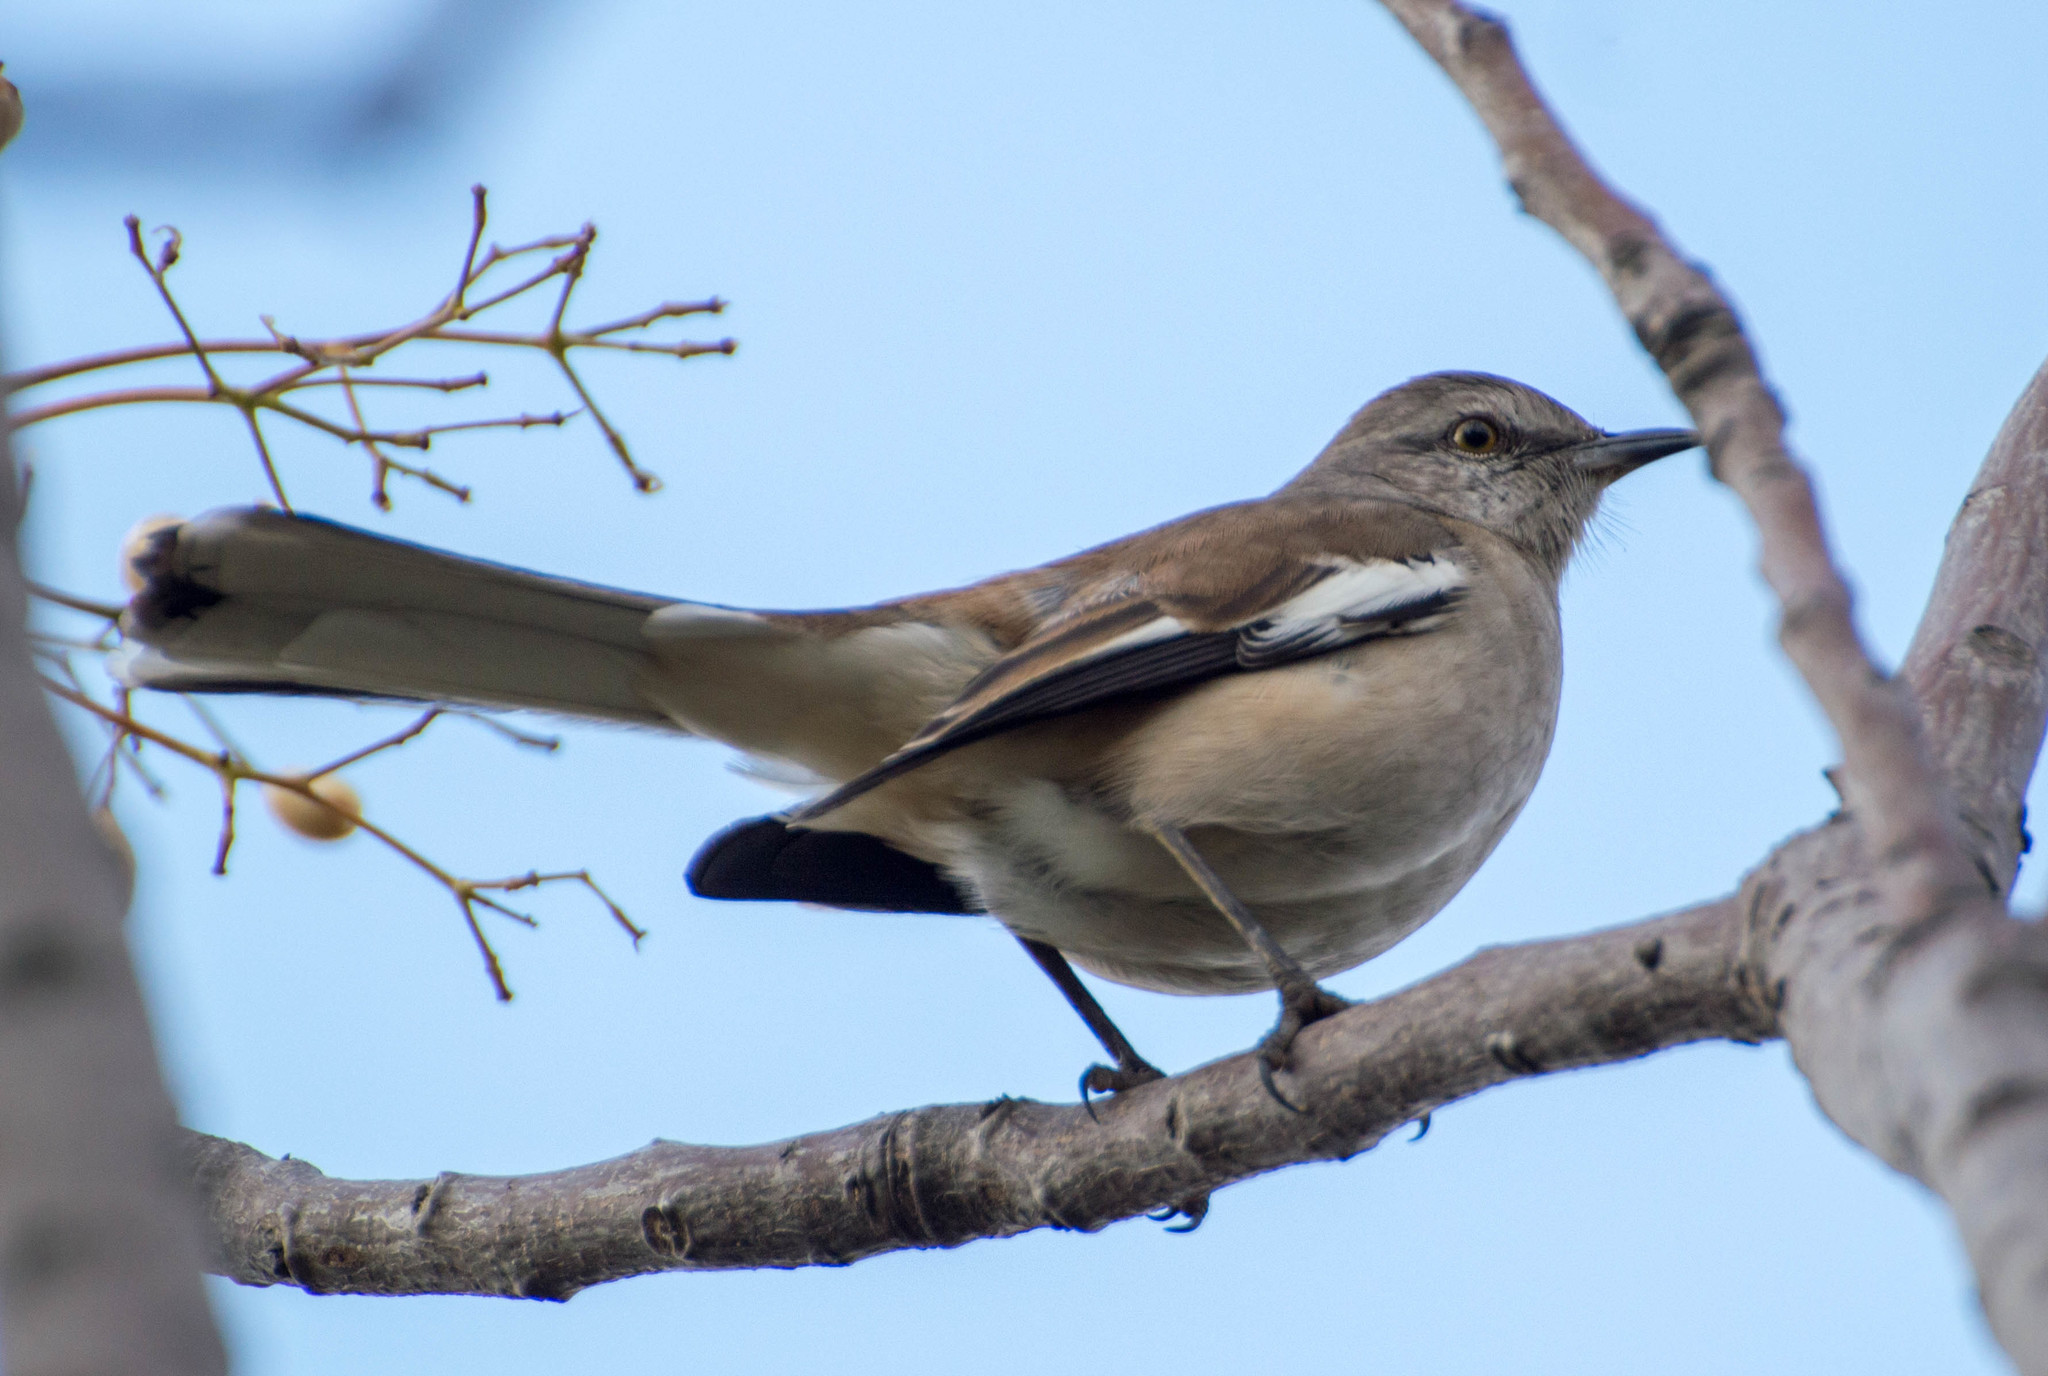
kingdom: Animalia
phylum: Chordata
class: Aves
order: Passeriformes
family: Mimidae
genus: Mimus
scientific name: Mimus triurus
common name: White-banded mockingbird
